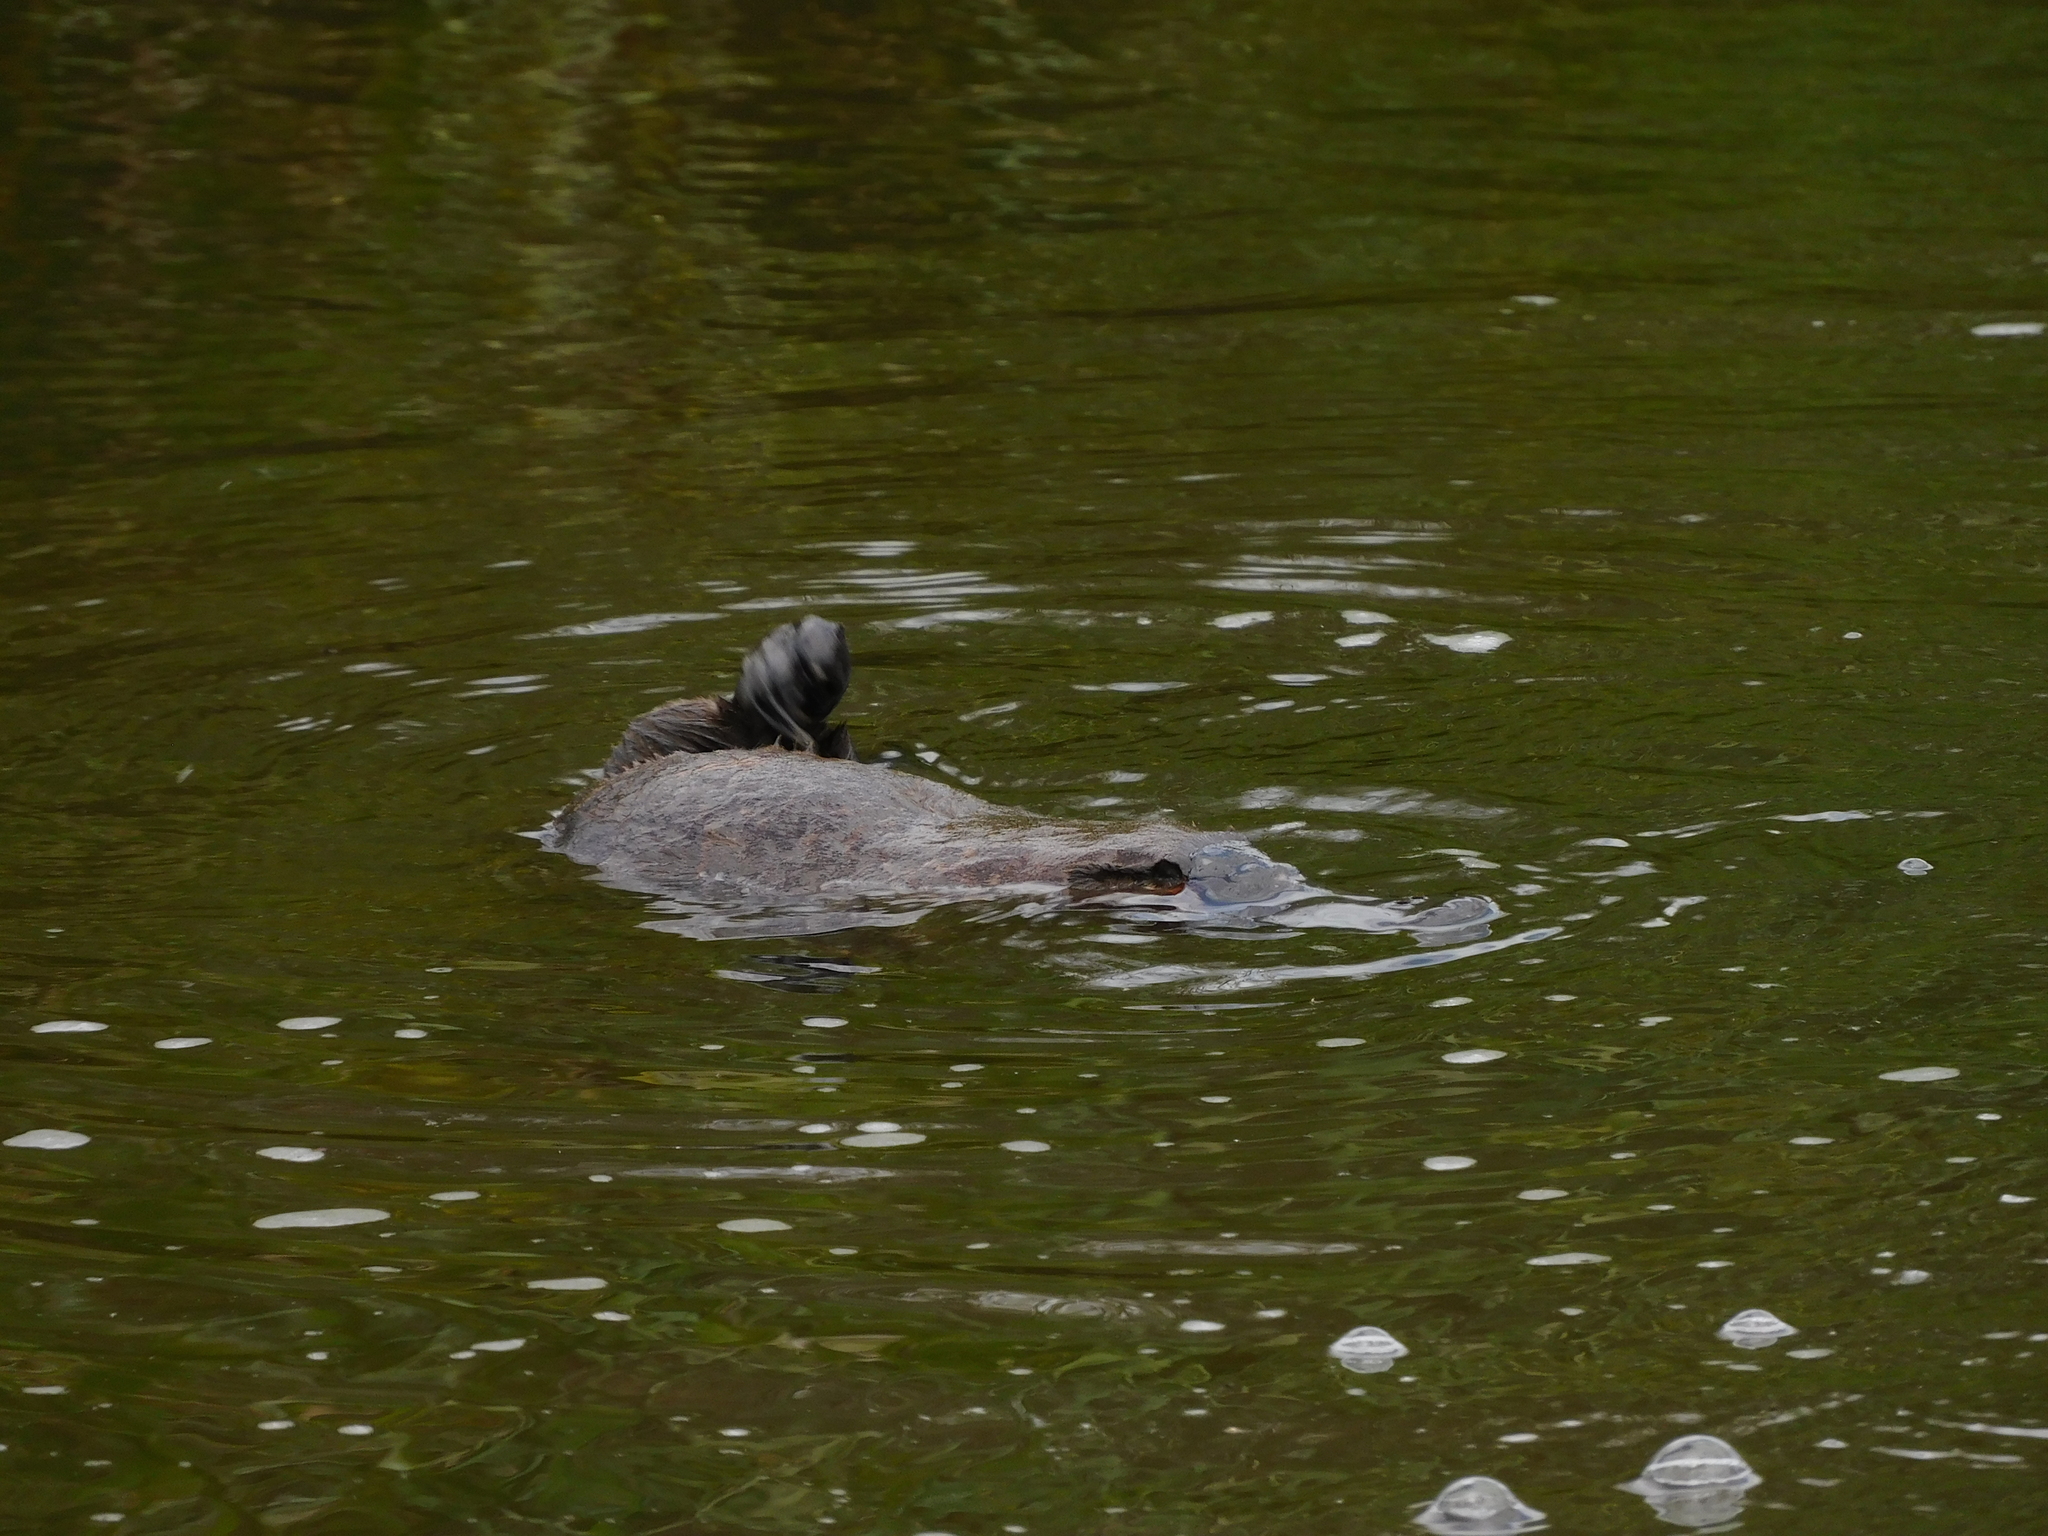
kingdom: Animalia
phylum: Chordata
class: Mammalia
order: Monotremata
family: Ornithorhynchidae
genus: Ornithorhynchus
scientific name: Ornithorhynchus anatinus
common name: Platypus
